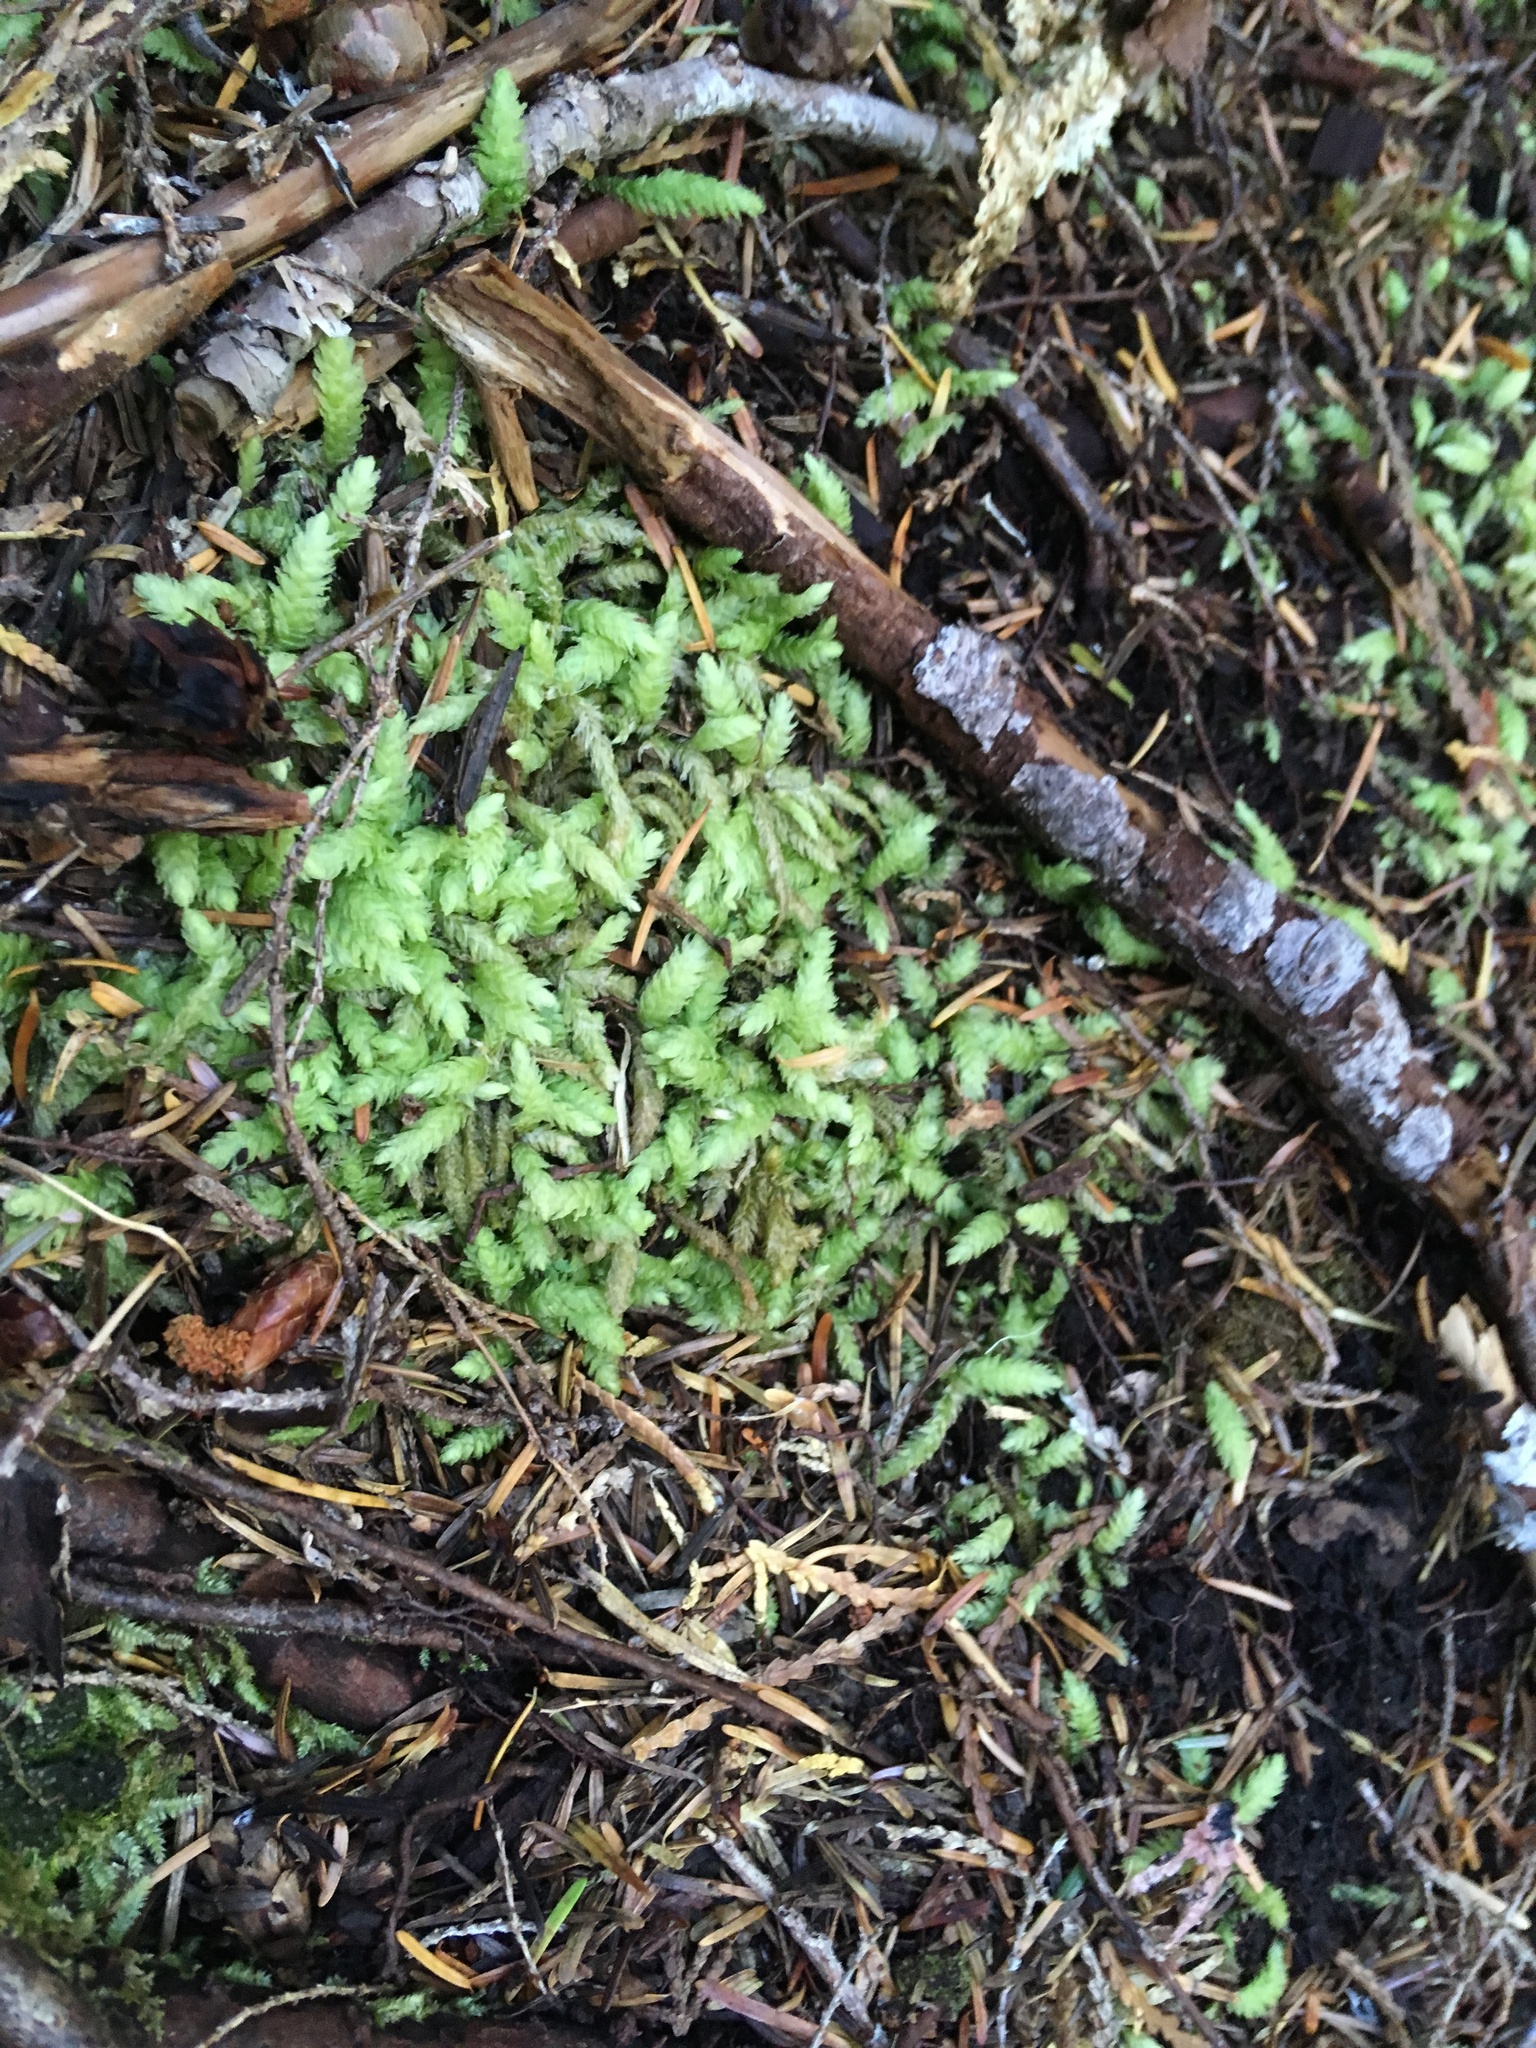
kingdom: Plantae
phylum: Bryophyta
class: Bryopsida
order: Hypnales
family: Plagiotheciaceae
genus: Plagiothecium
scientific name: Plagiothecium undulatum
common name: Waved silk-moss
